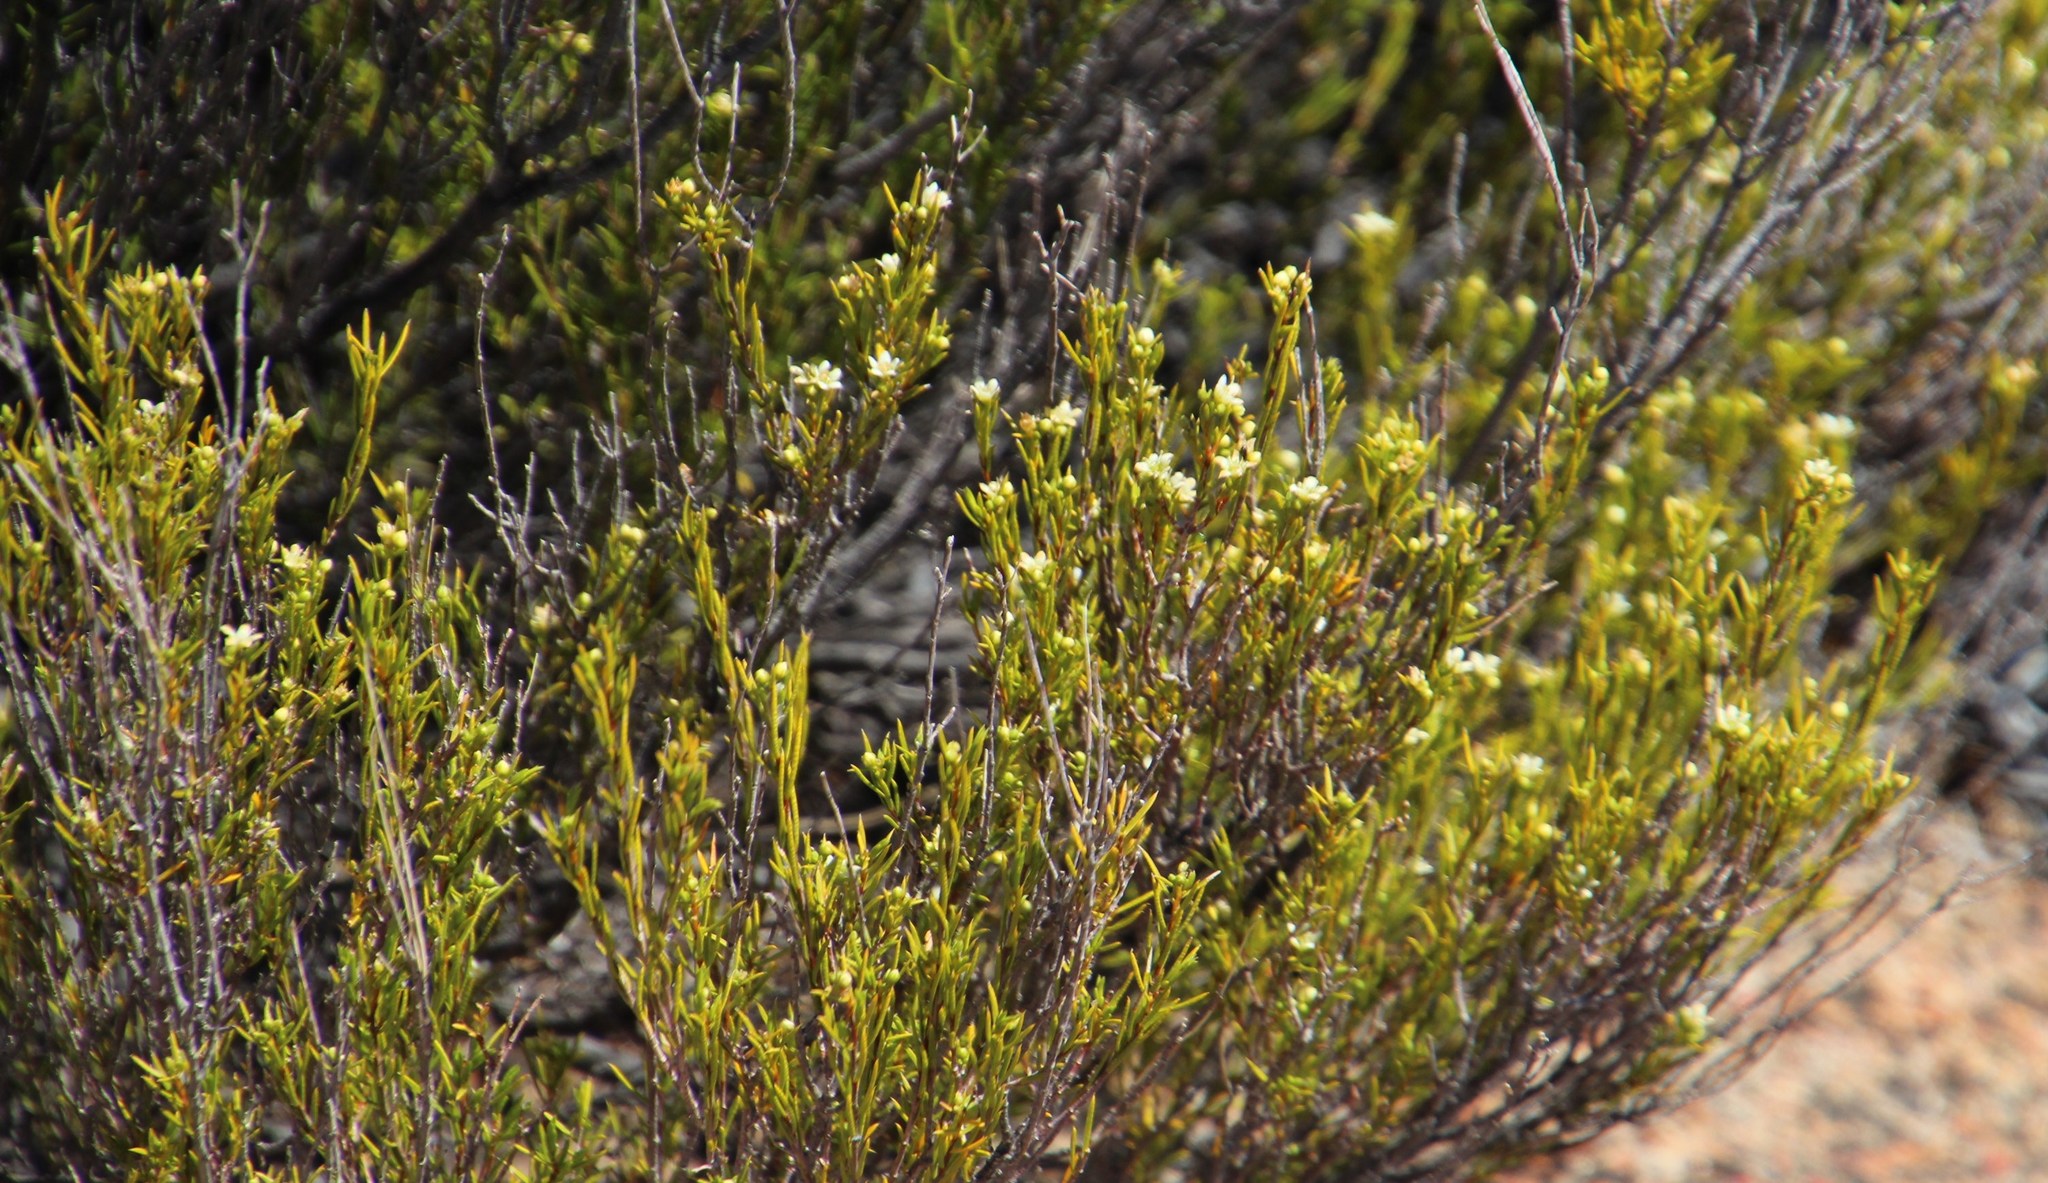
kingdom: Plantae
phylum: Tracheophyta
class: Magnoliopsida
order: Sapindales
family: Rutaceae
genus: Diosma
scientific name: Diosma acmaeophylla
